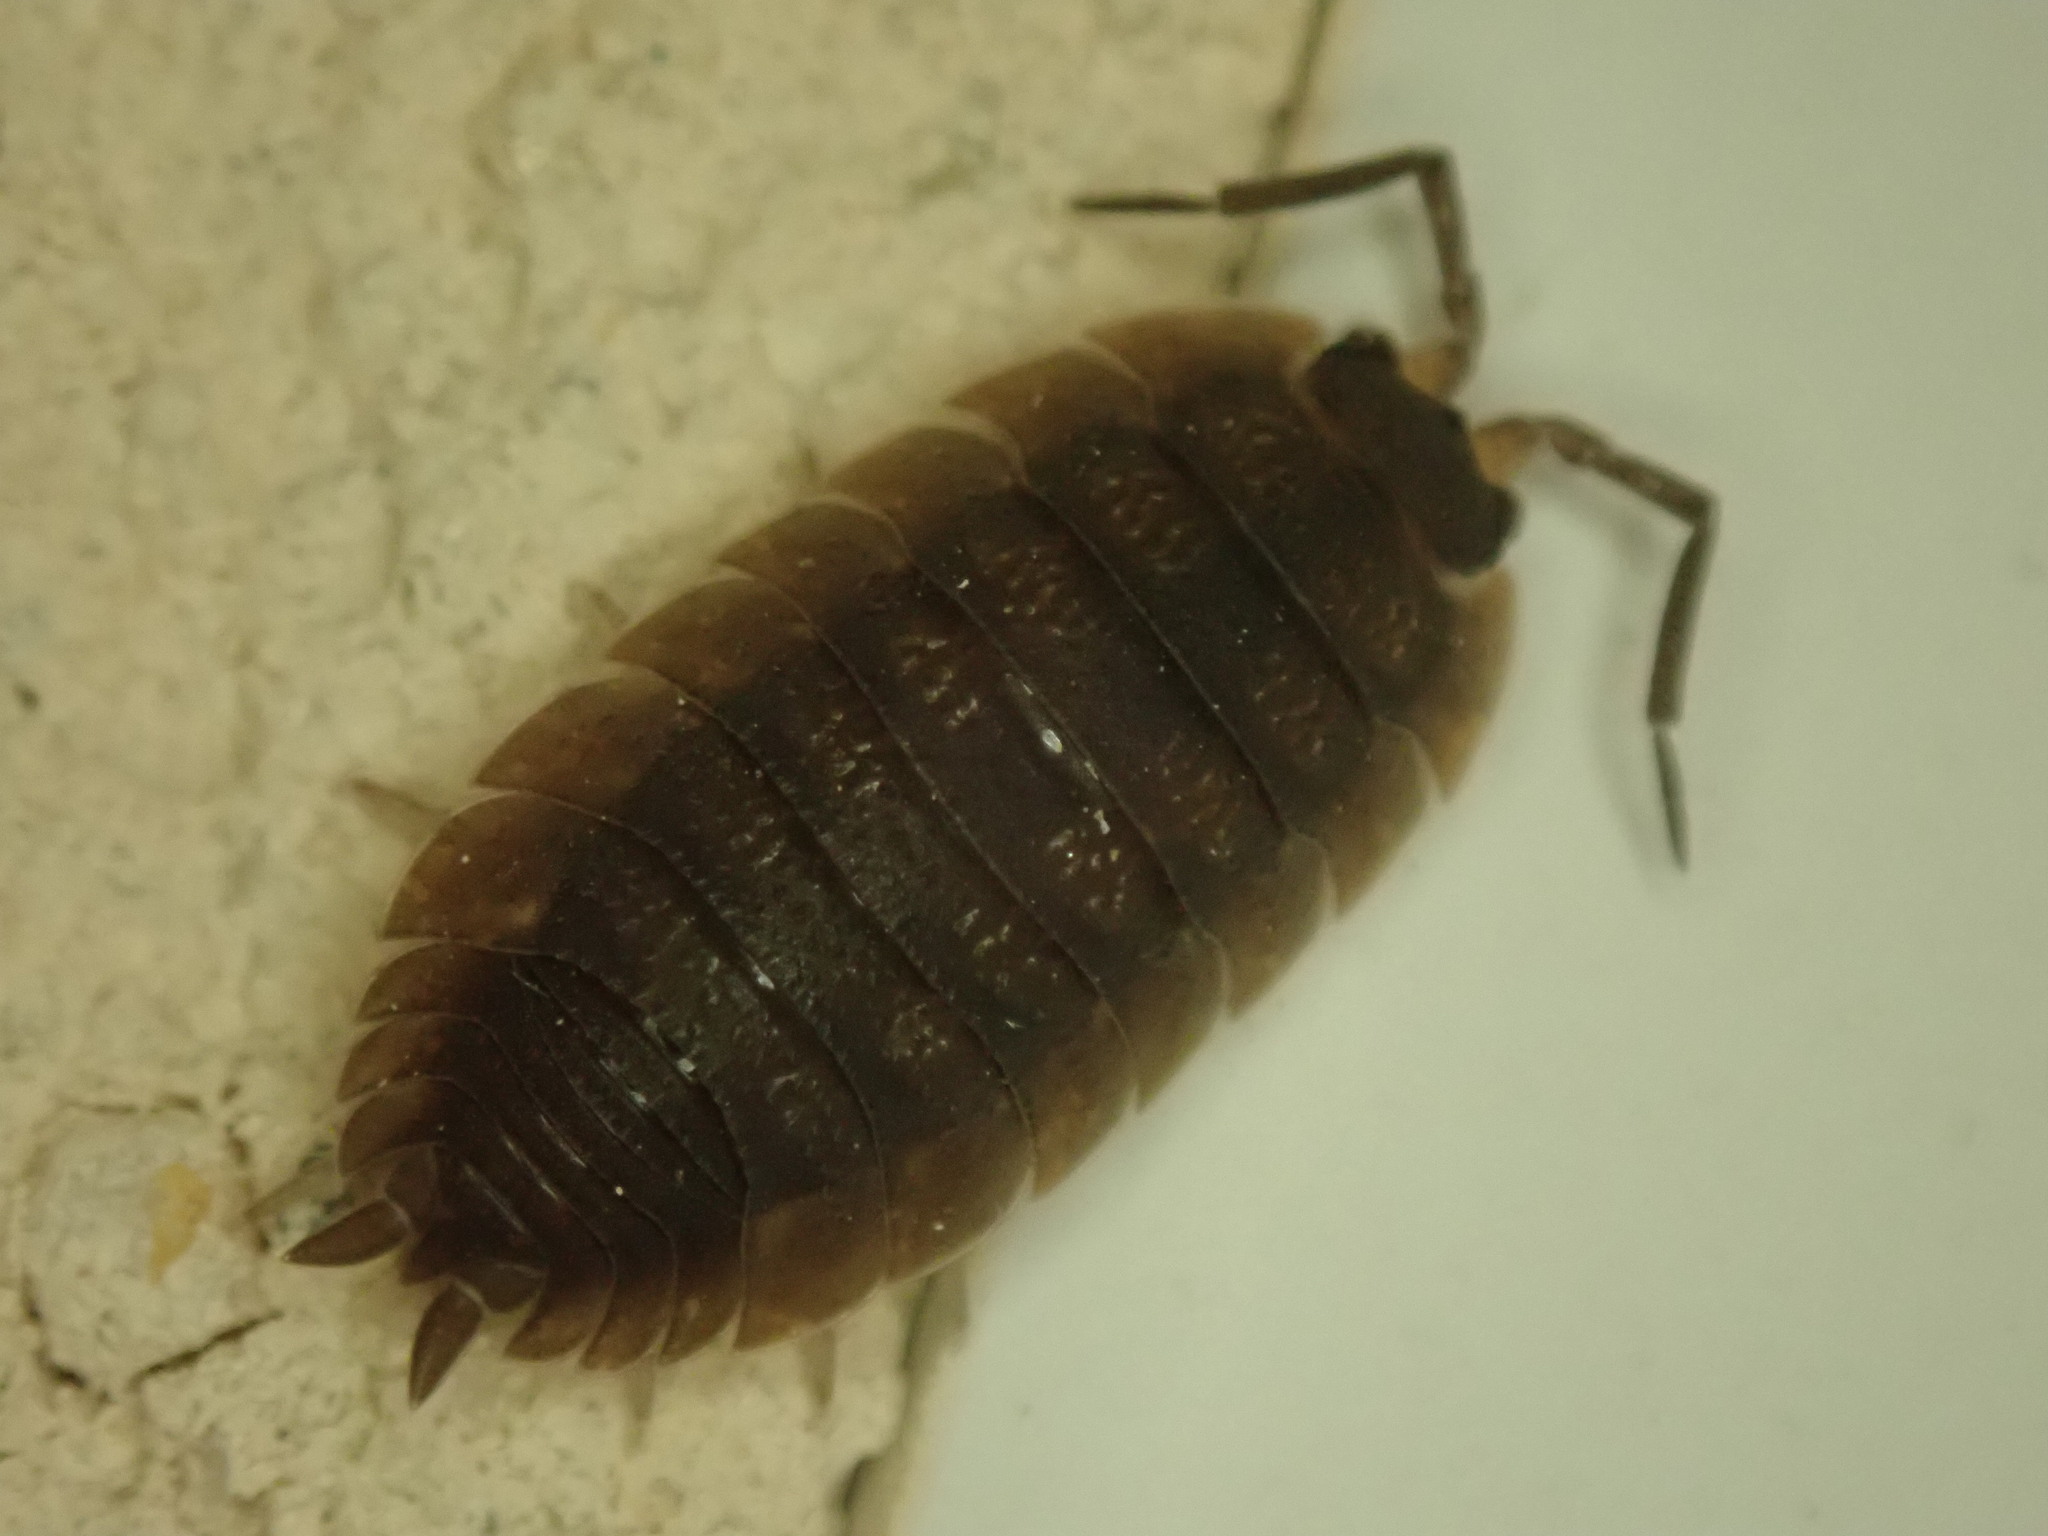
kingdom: Animalia
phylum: Arthropoda
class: Malacostraca
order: Isopoda
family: Porcellionidae
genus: Porcellio
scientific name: Porcellio scaber
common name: Common rough woodlouse
